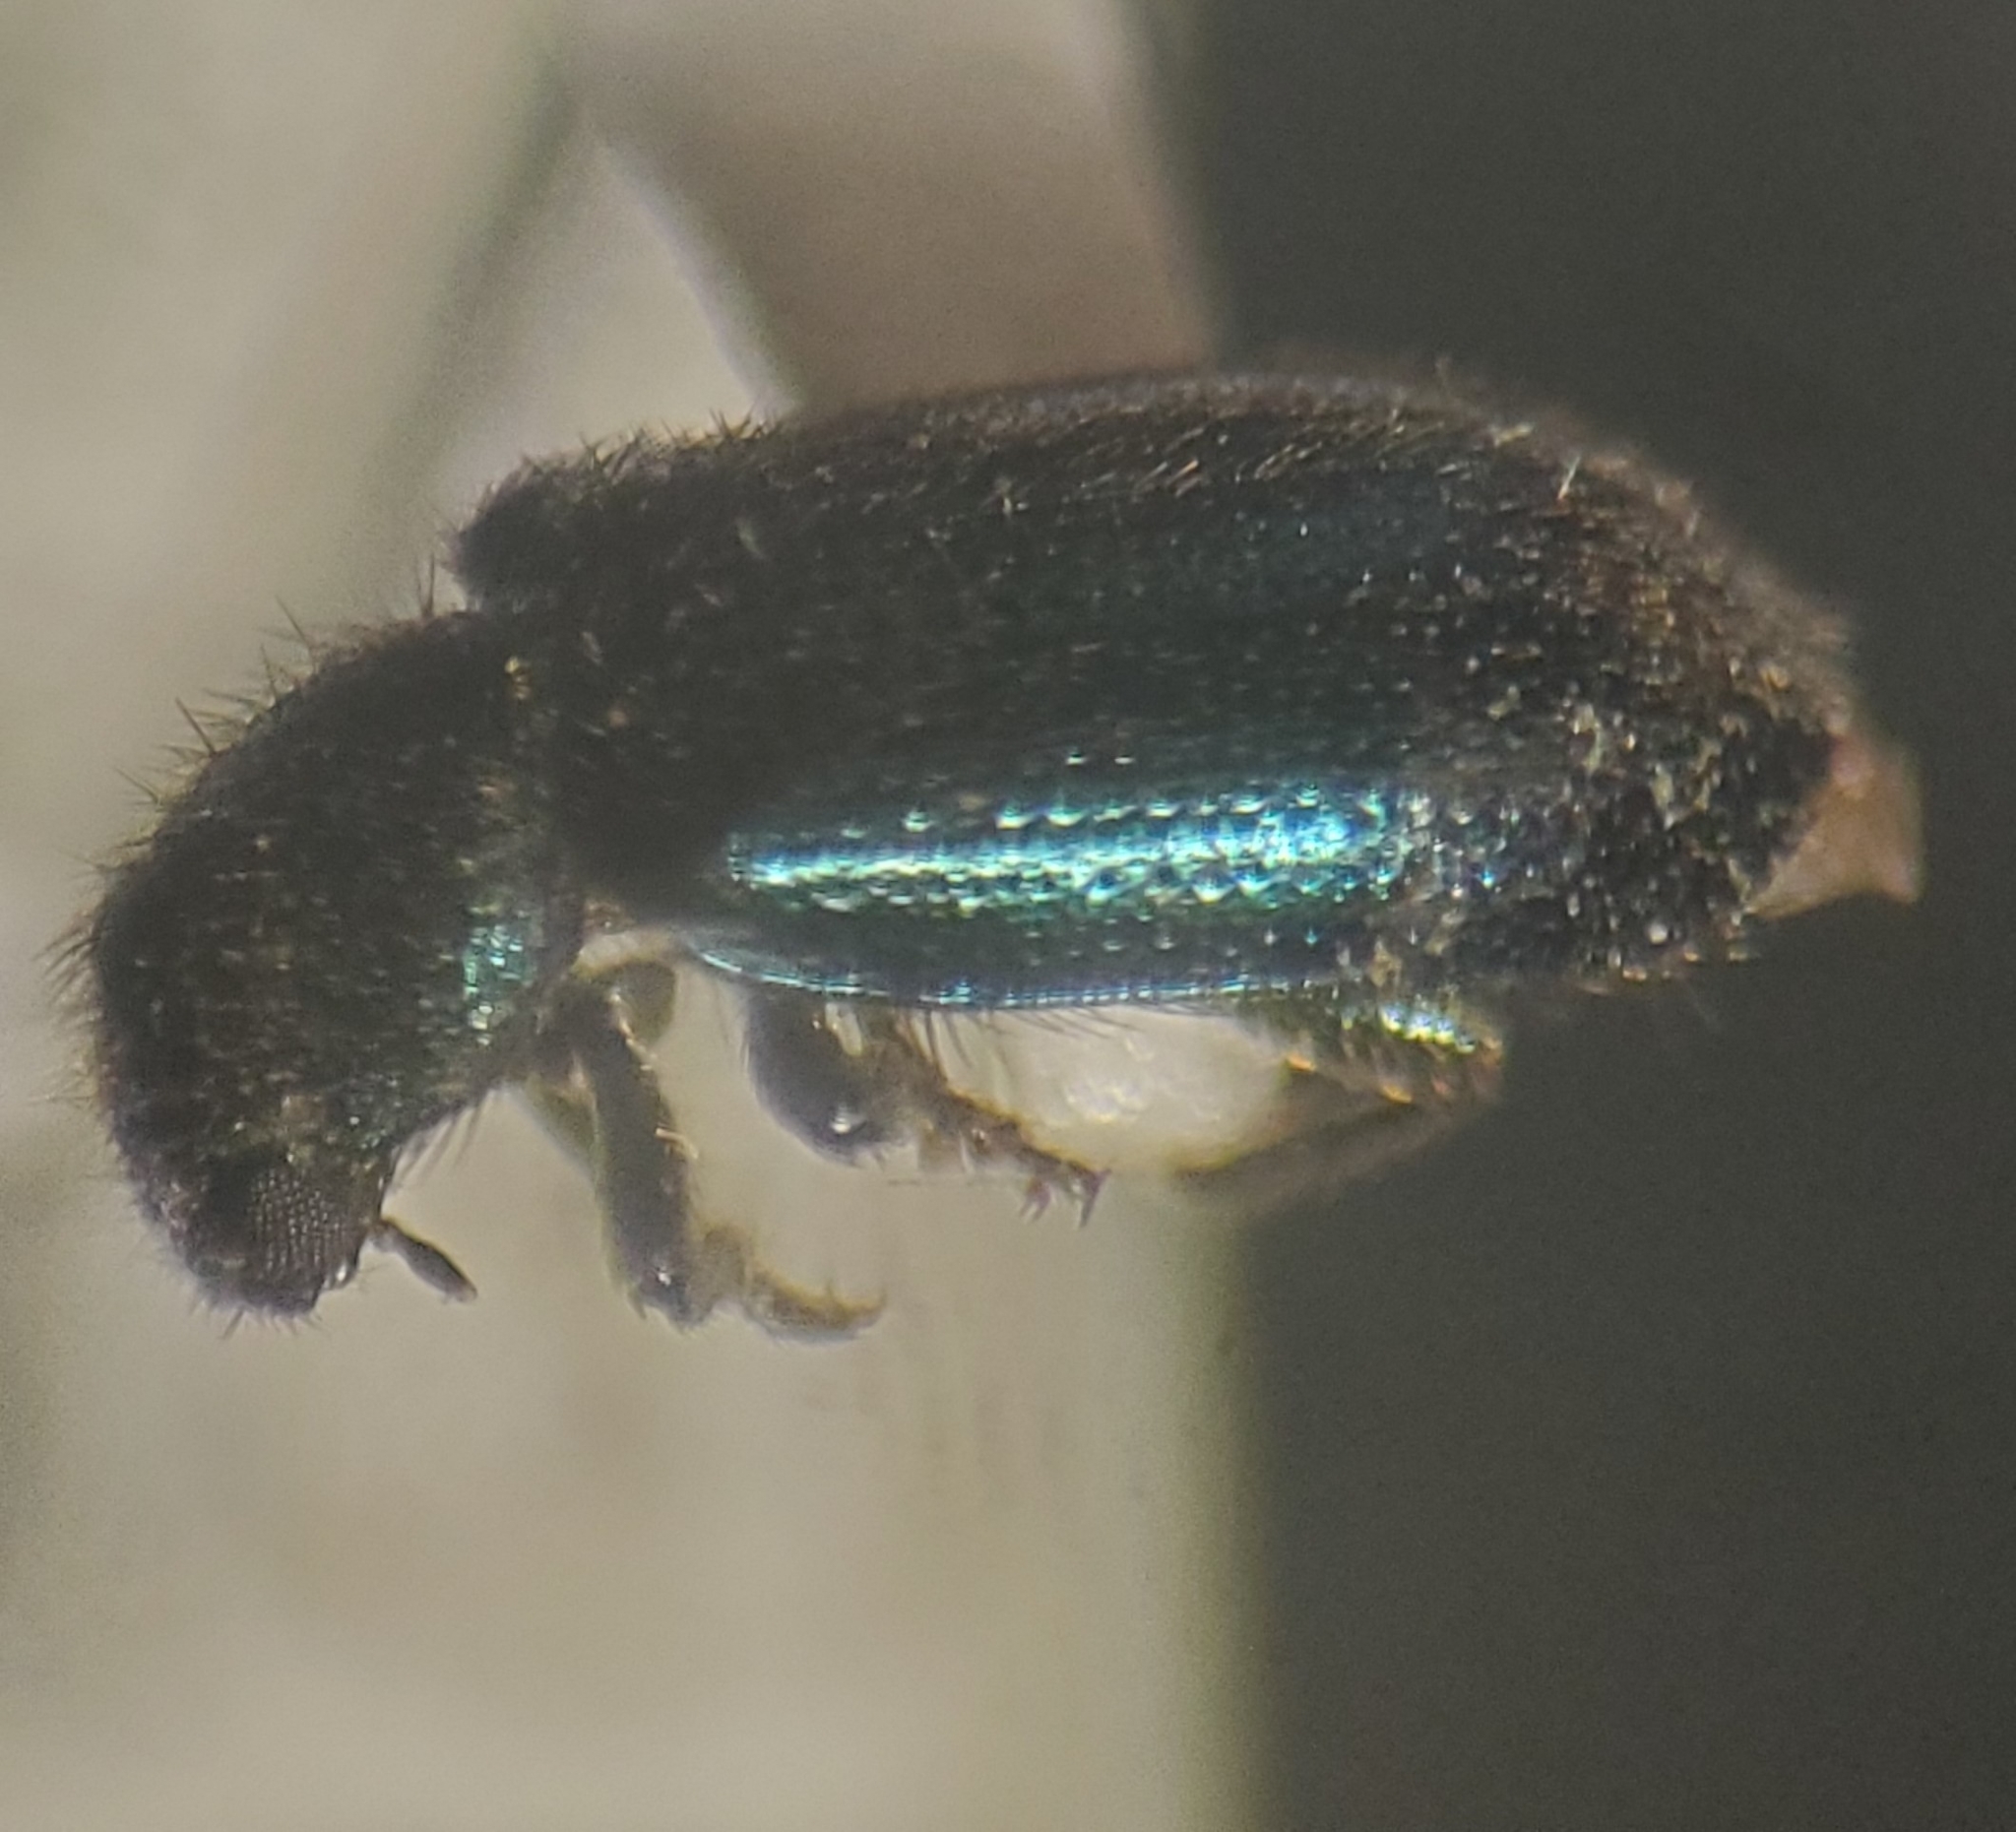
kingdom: Animalia
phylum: Arthropoda
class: Insecta
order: Coleoptera
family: Cleridae
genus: Necrobia
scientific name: Necrobia violacea
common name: Violet checkered beetle
